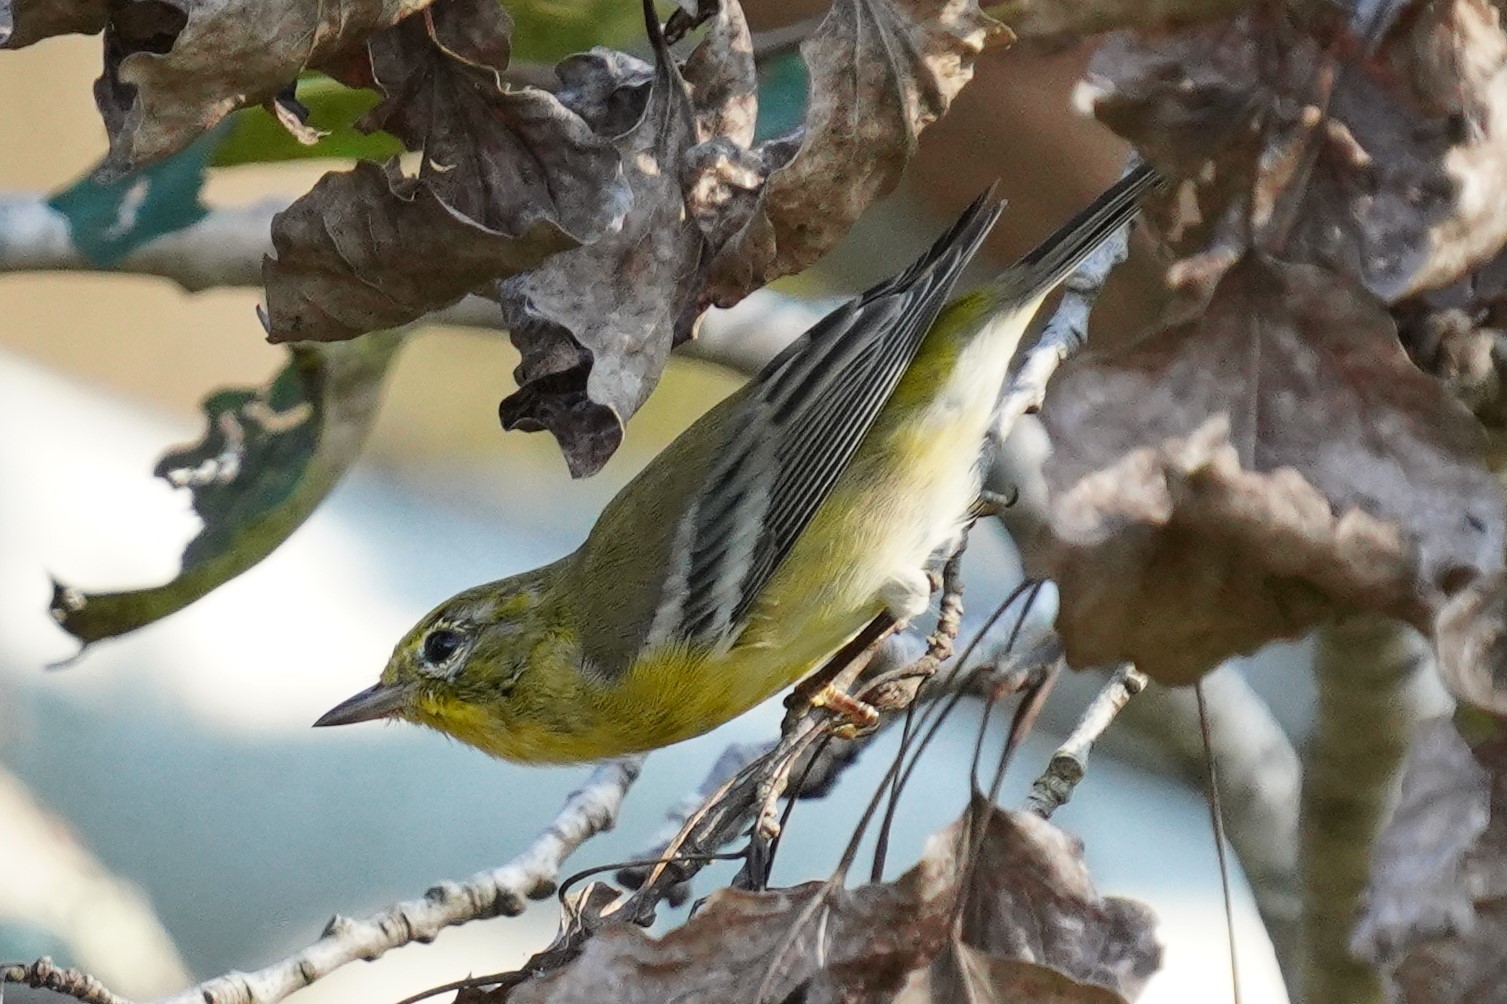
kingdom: Animalia
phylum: Chordata
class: Aves
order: Passeriformes
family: Parulidae
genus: Setophaga
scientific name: Setophaga pinus
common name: Pine warbler
